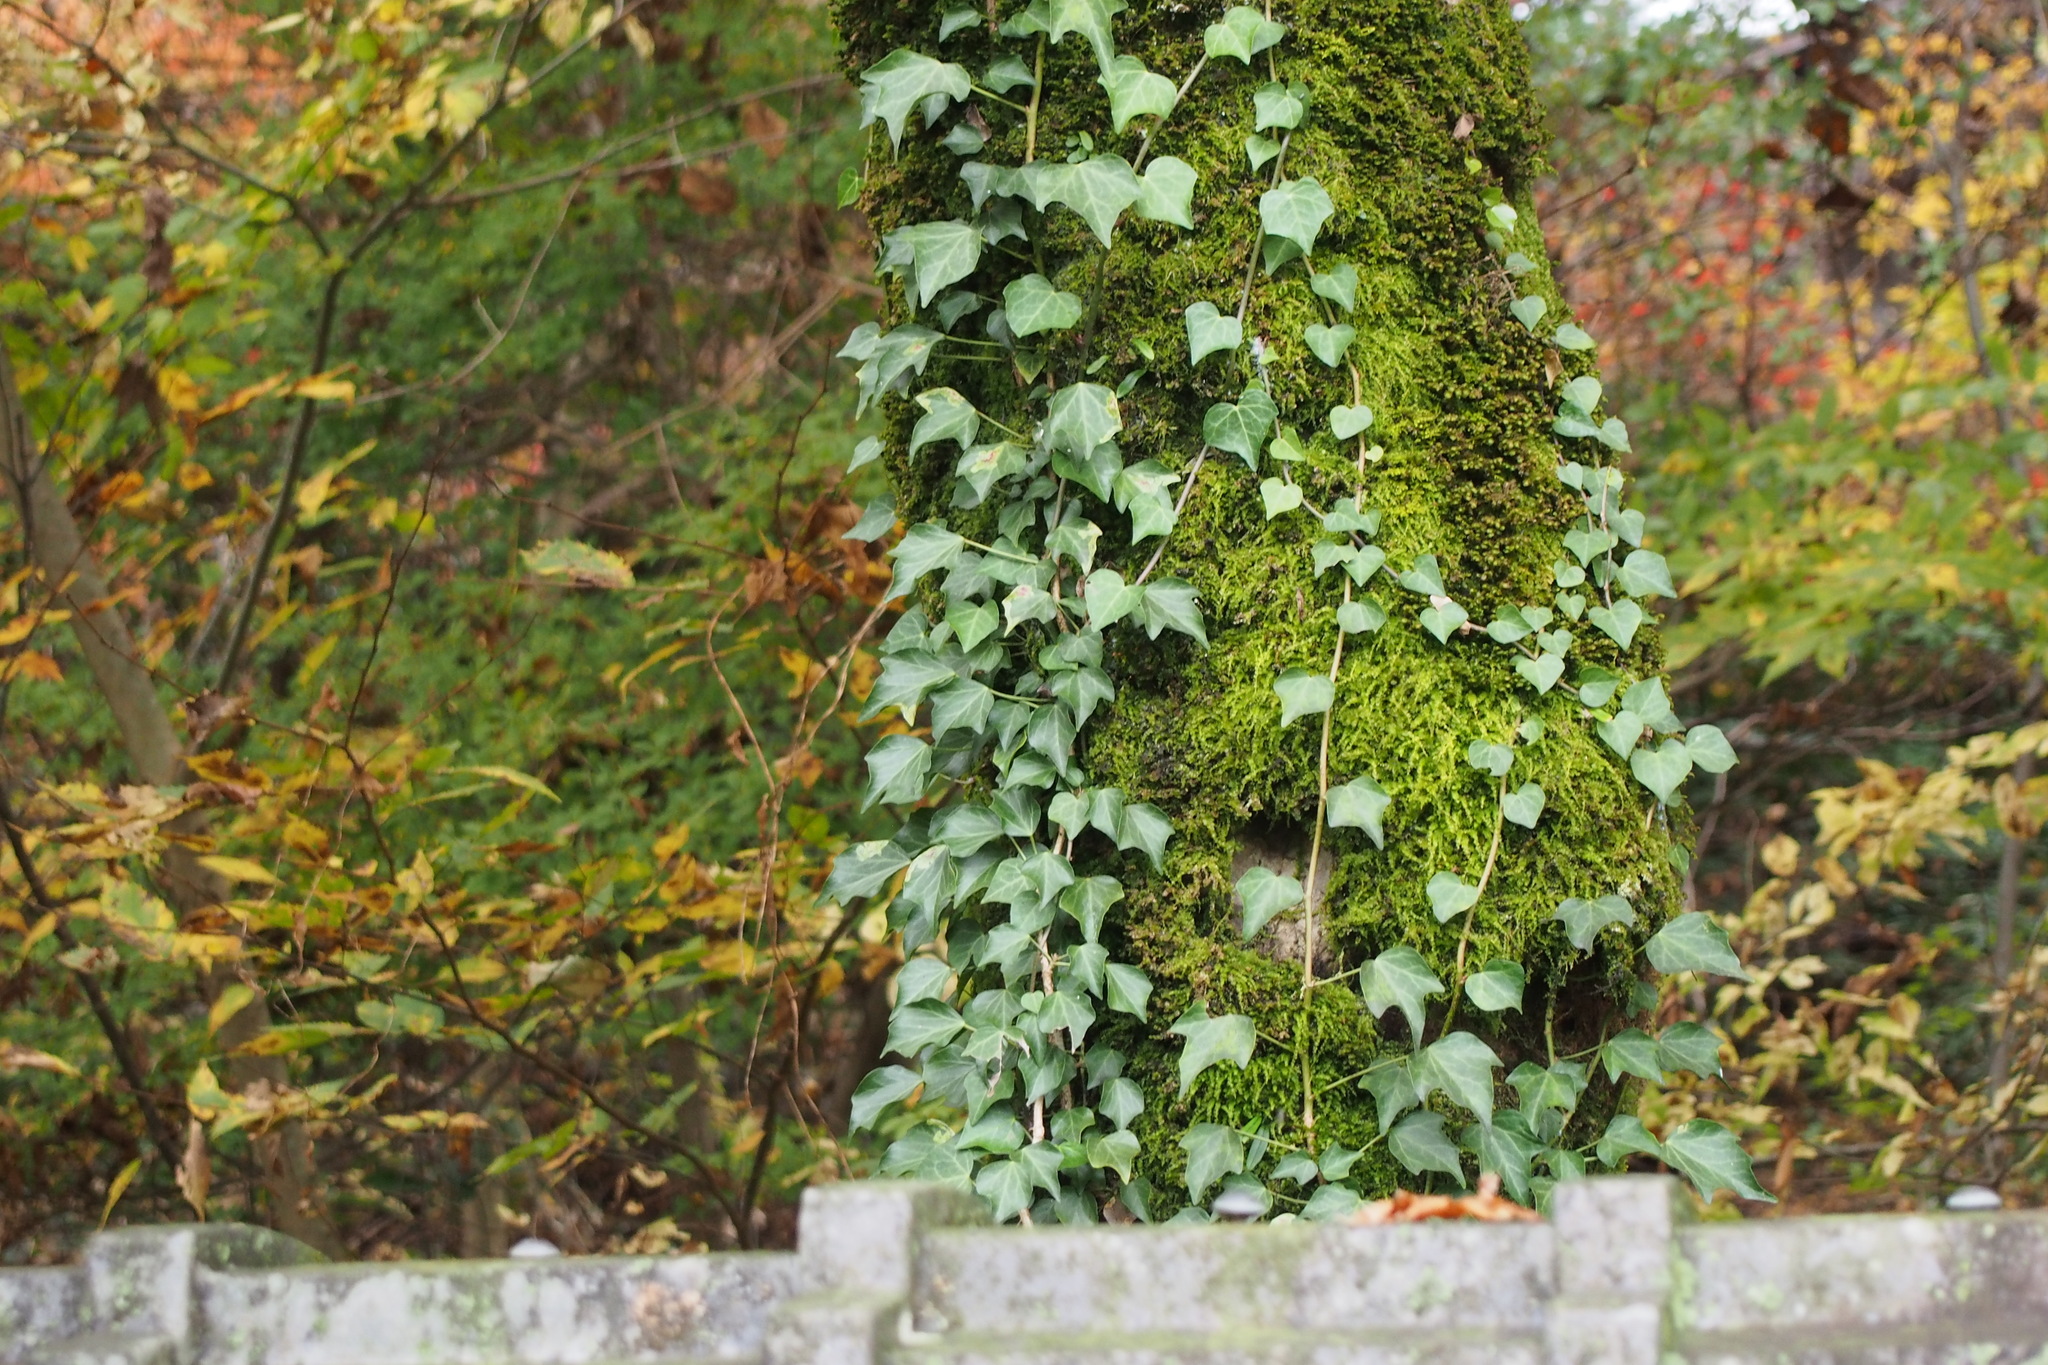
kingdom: Plantae
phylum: Tracheophyta
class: Magnoliopsida
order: Apiales
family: Araliaceae
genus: Hedera
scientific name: Hedera rhombea
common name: Japanese ivy
